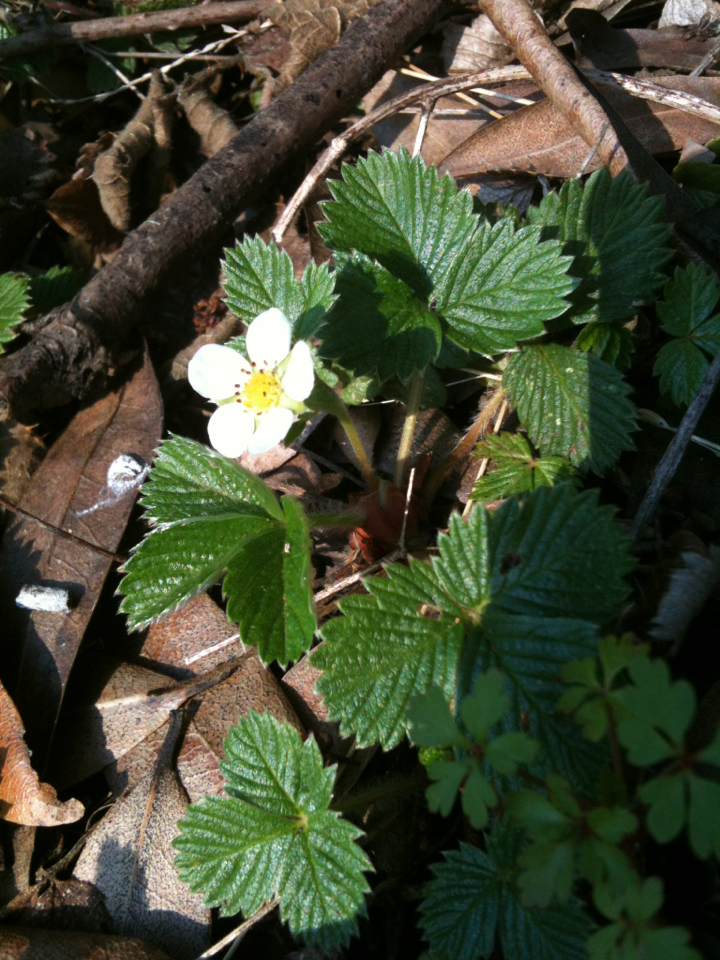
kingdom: Plantae
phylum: Tracheophyta
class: Magnoliopsida
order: Rosales
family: Rosaceae
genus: Fragaria
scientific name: Fragaria vesca
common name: Wild strawberry
